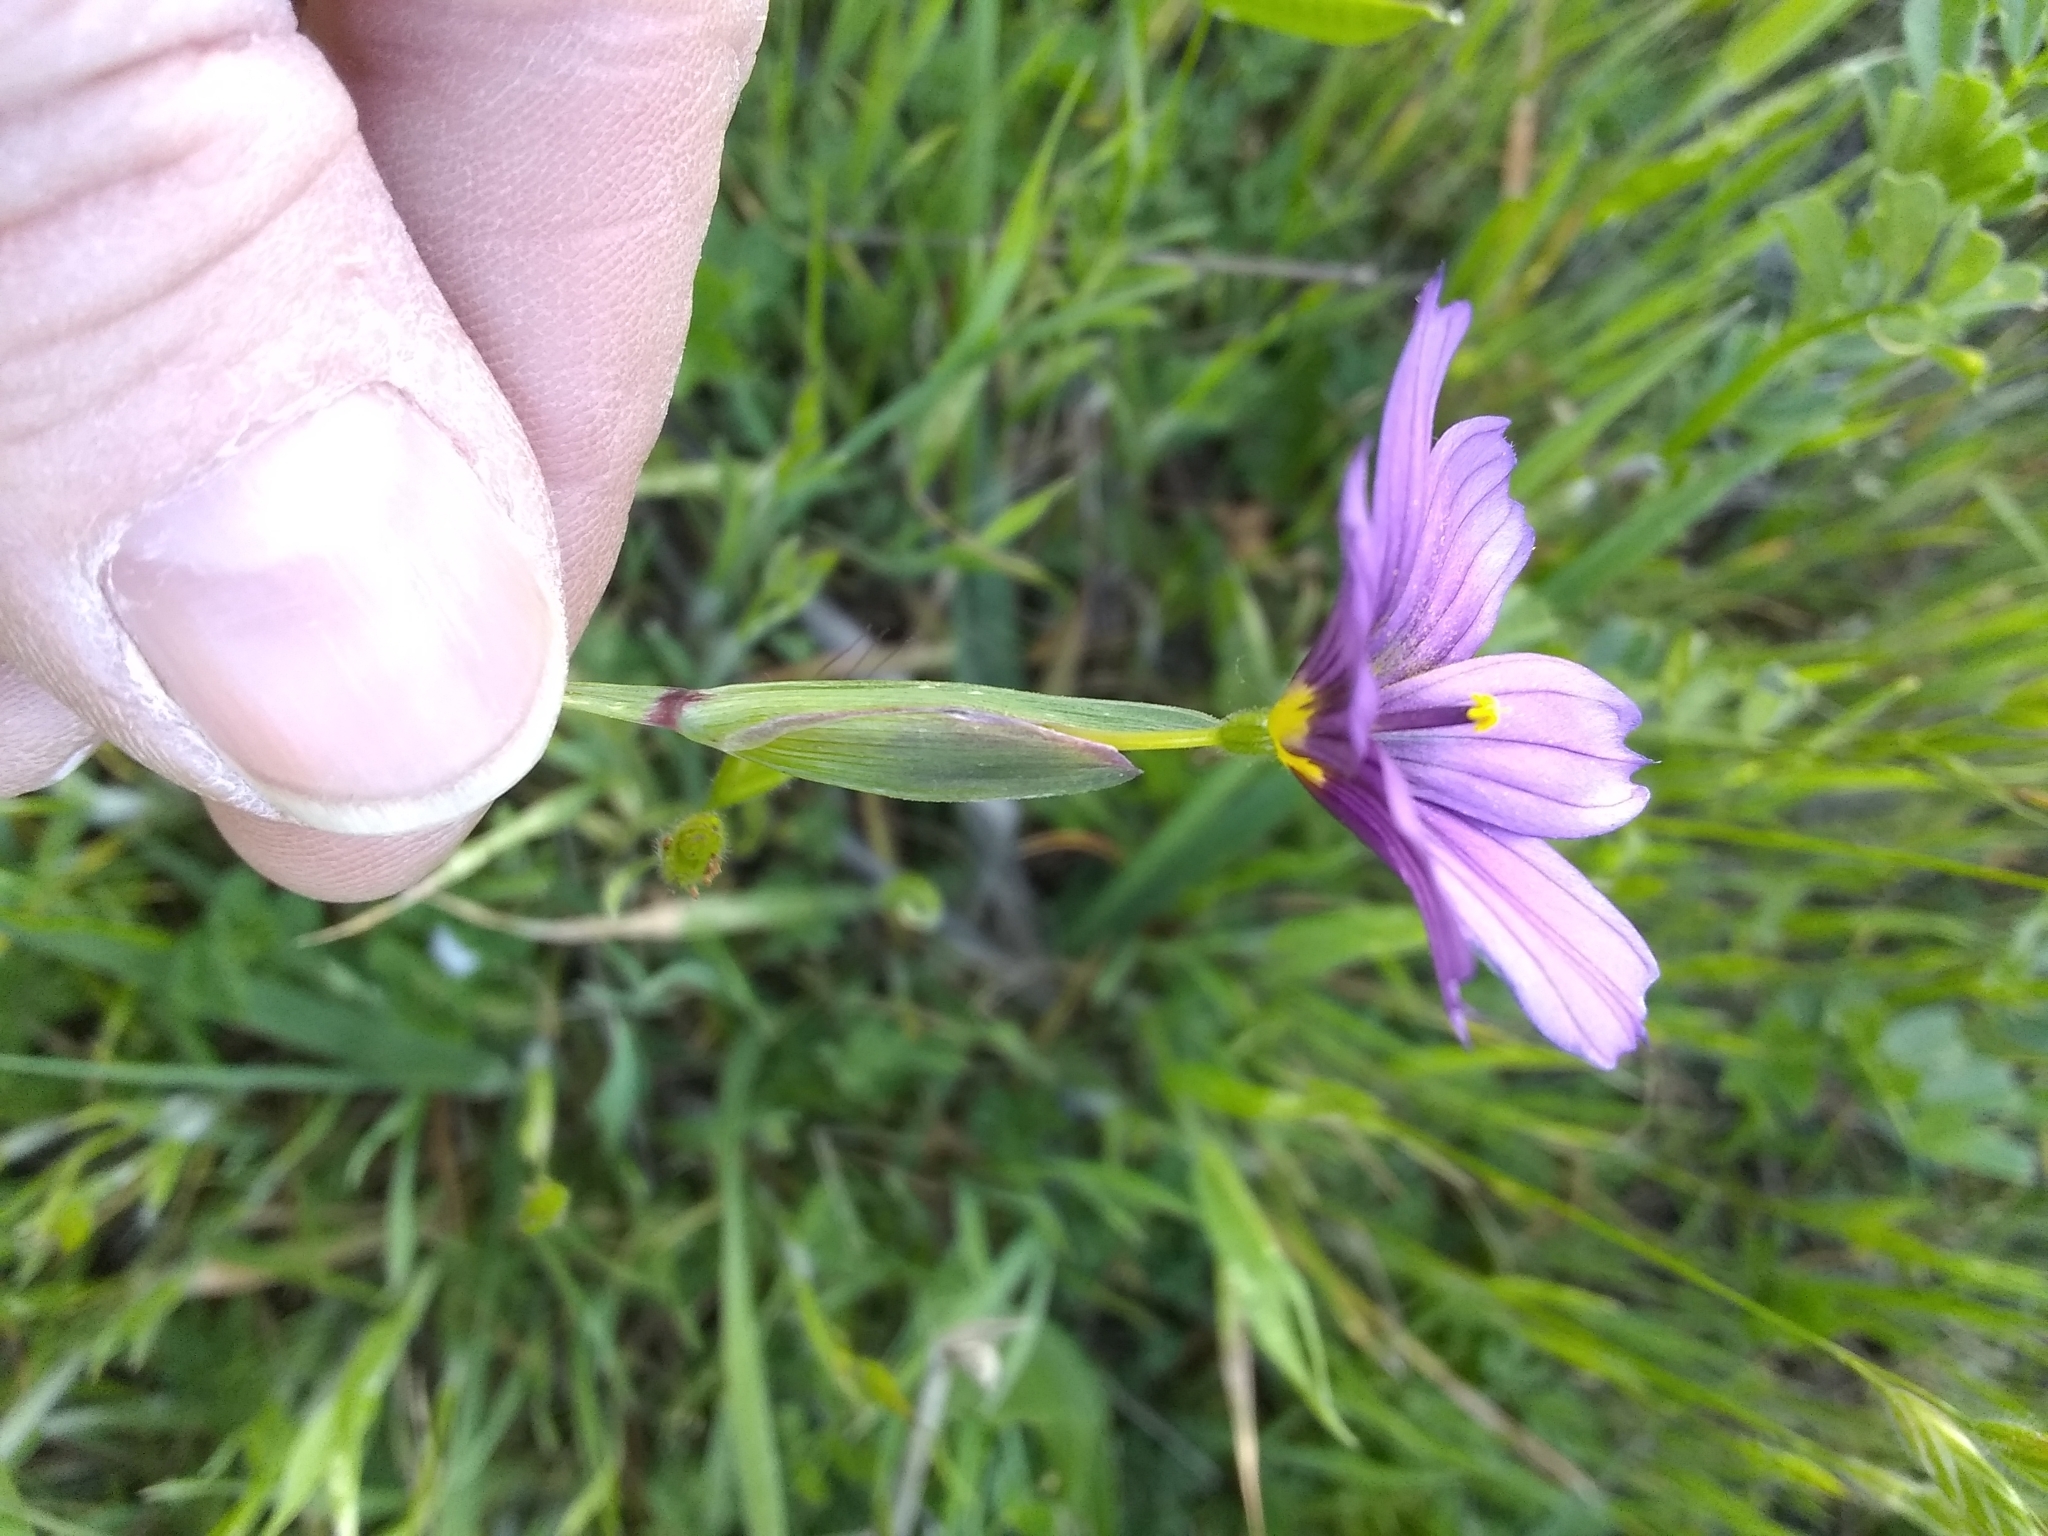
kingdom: Plantae
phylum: Tracheophyta
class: Liliopsida
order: Asparagales
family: Iridaceae
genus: Sisyrinchium
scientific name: Sisyrinchium bellum
